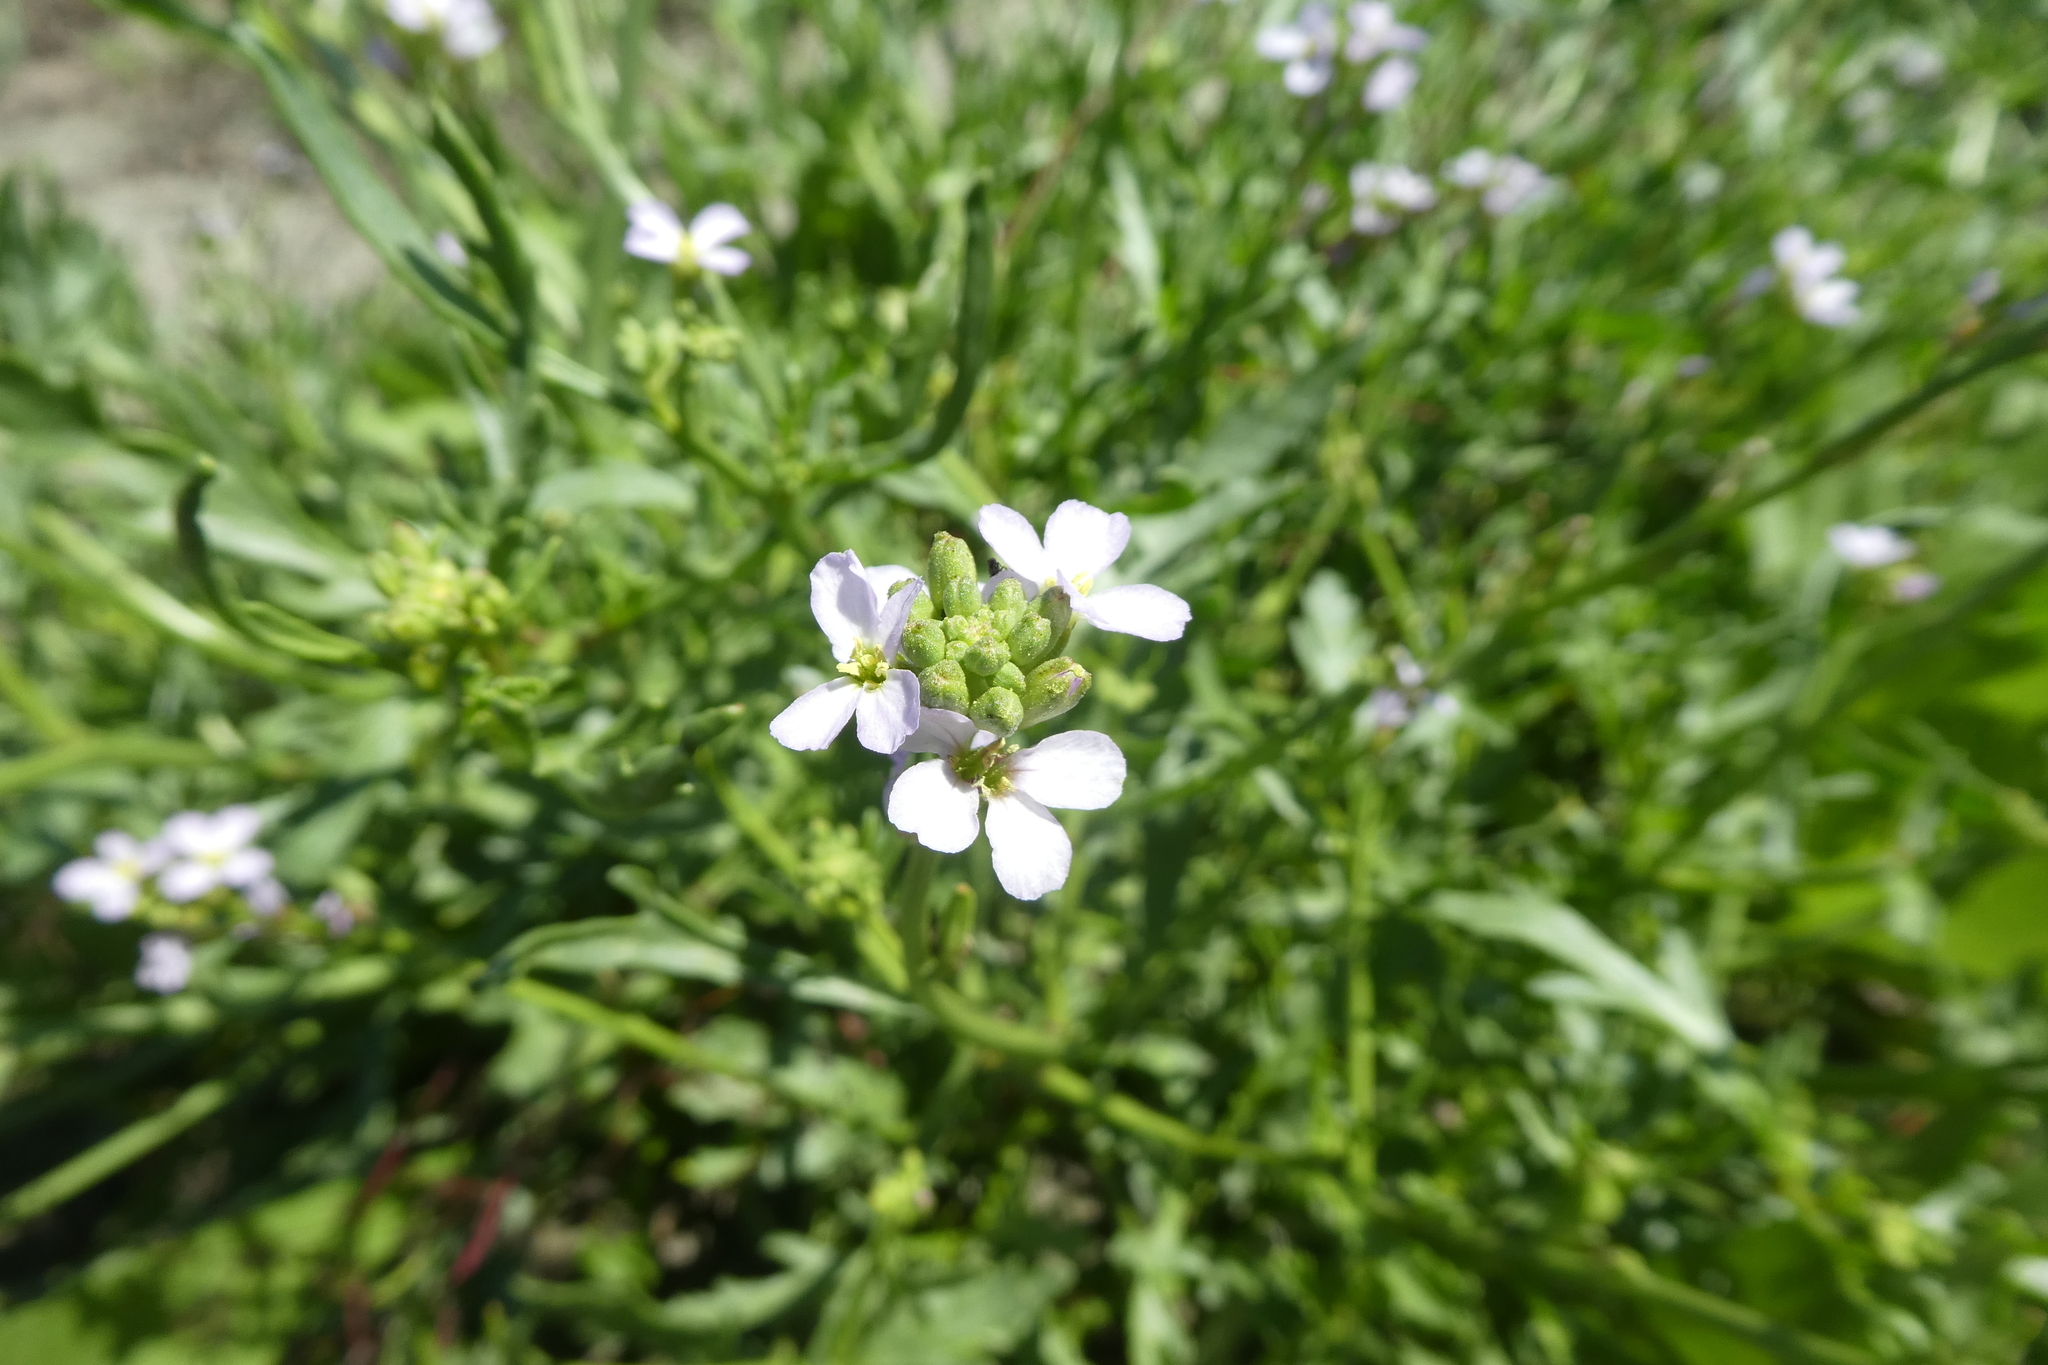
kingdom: Plantae
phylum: Tracheophyta
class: Magnoliopsida
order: Brassicales
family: Brassicaceae
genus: Cakile
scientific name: Cakile maritima
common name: Sea rocket
